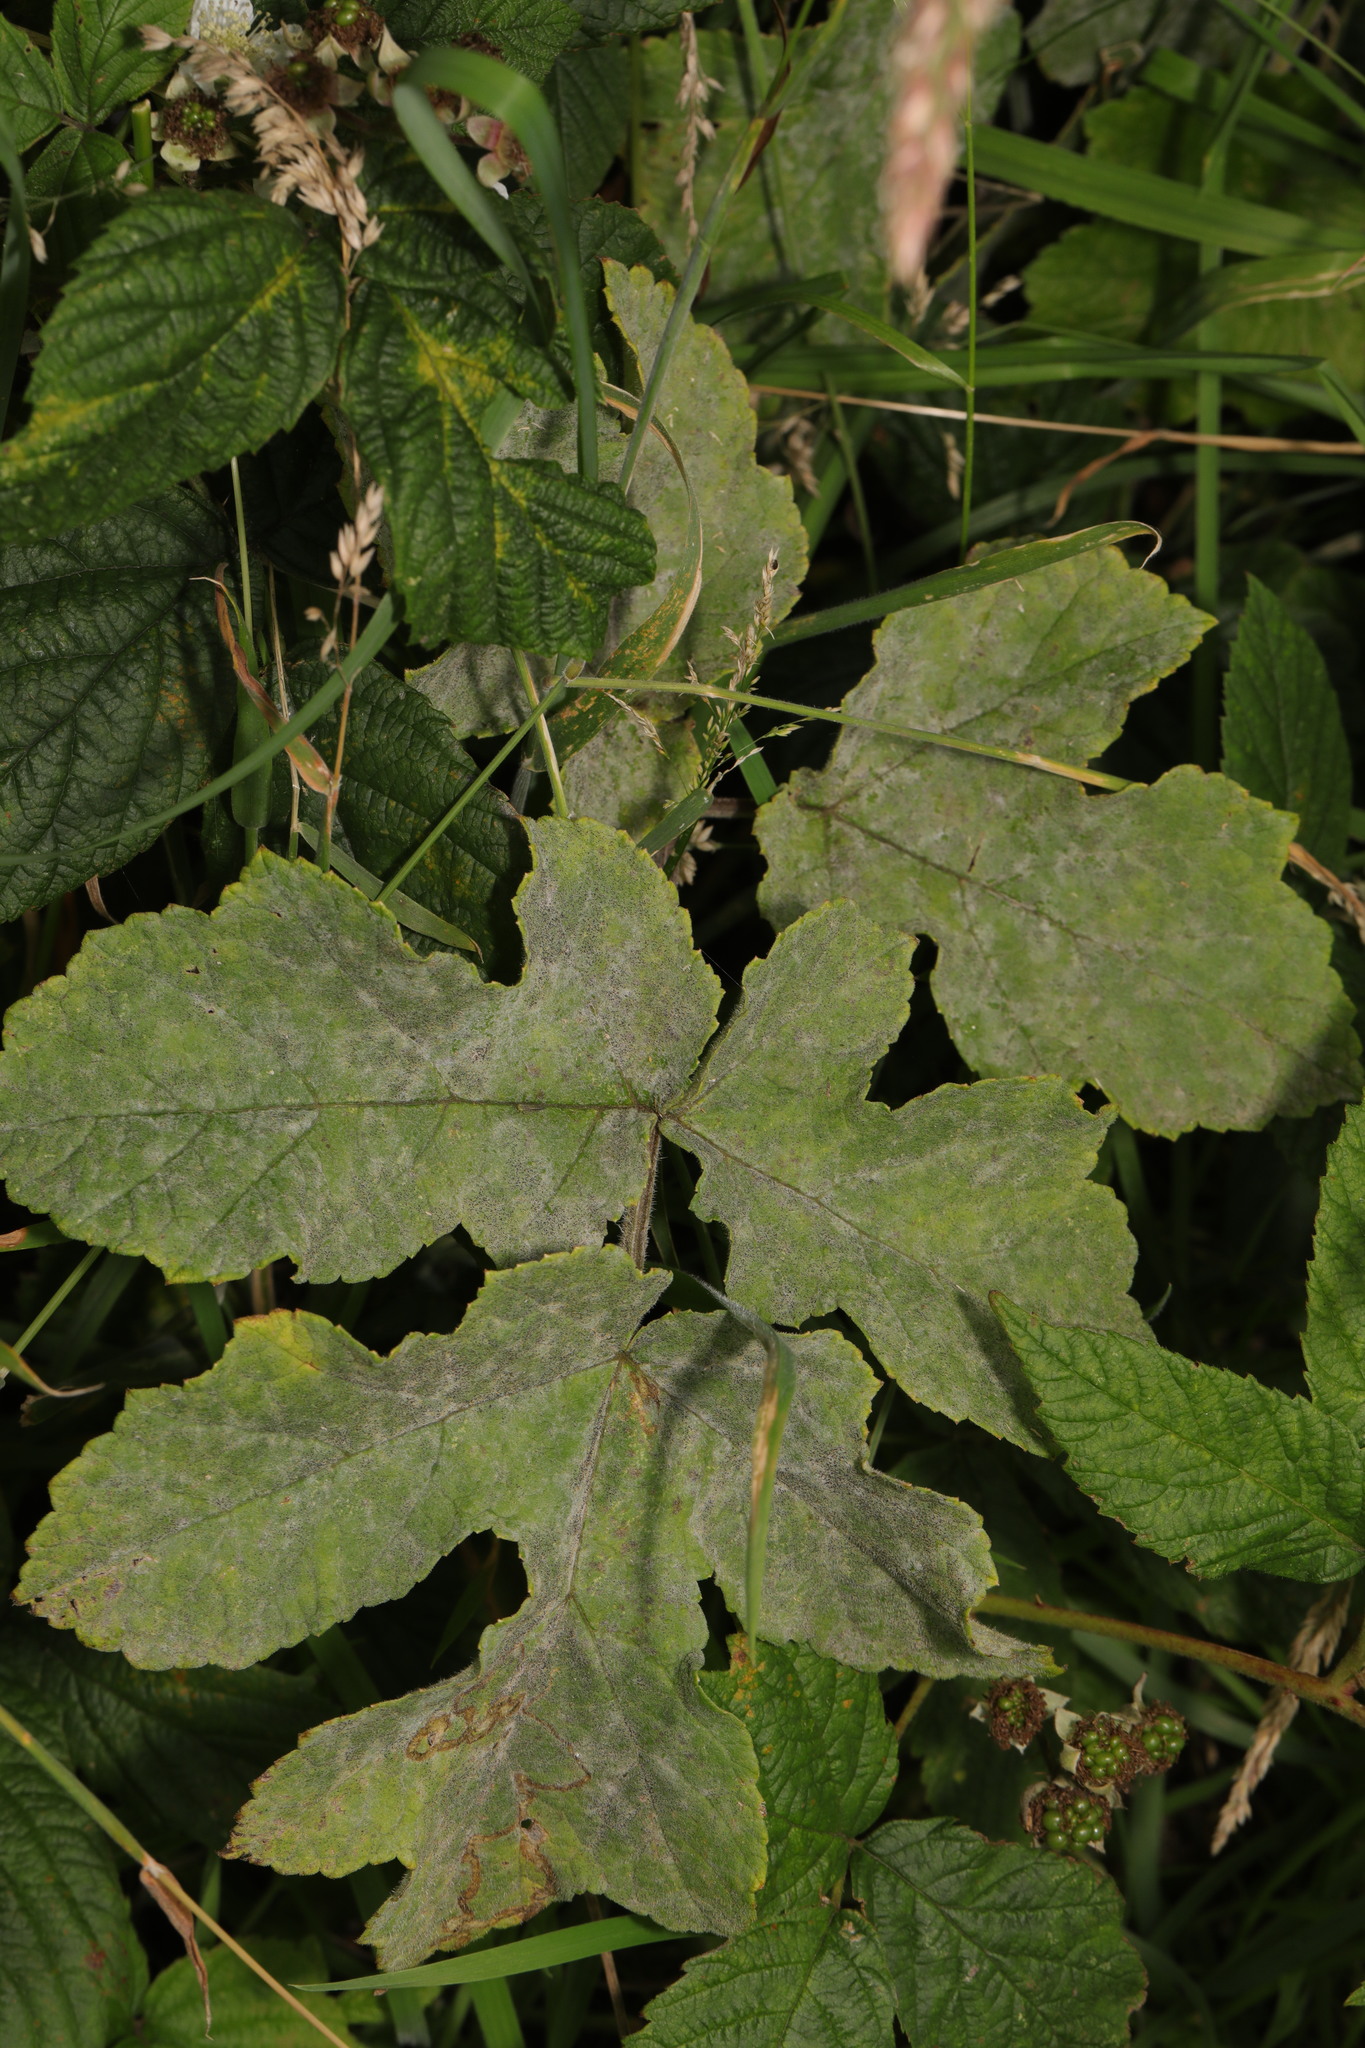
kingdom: Fungi
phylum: Ascomycota
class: Leotiomycetes
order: Helotiales
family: Erysiphaceae
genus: Erysiphe
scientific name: Erysiphe heraclei
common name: Umbellifer mildew
